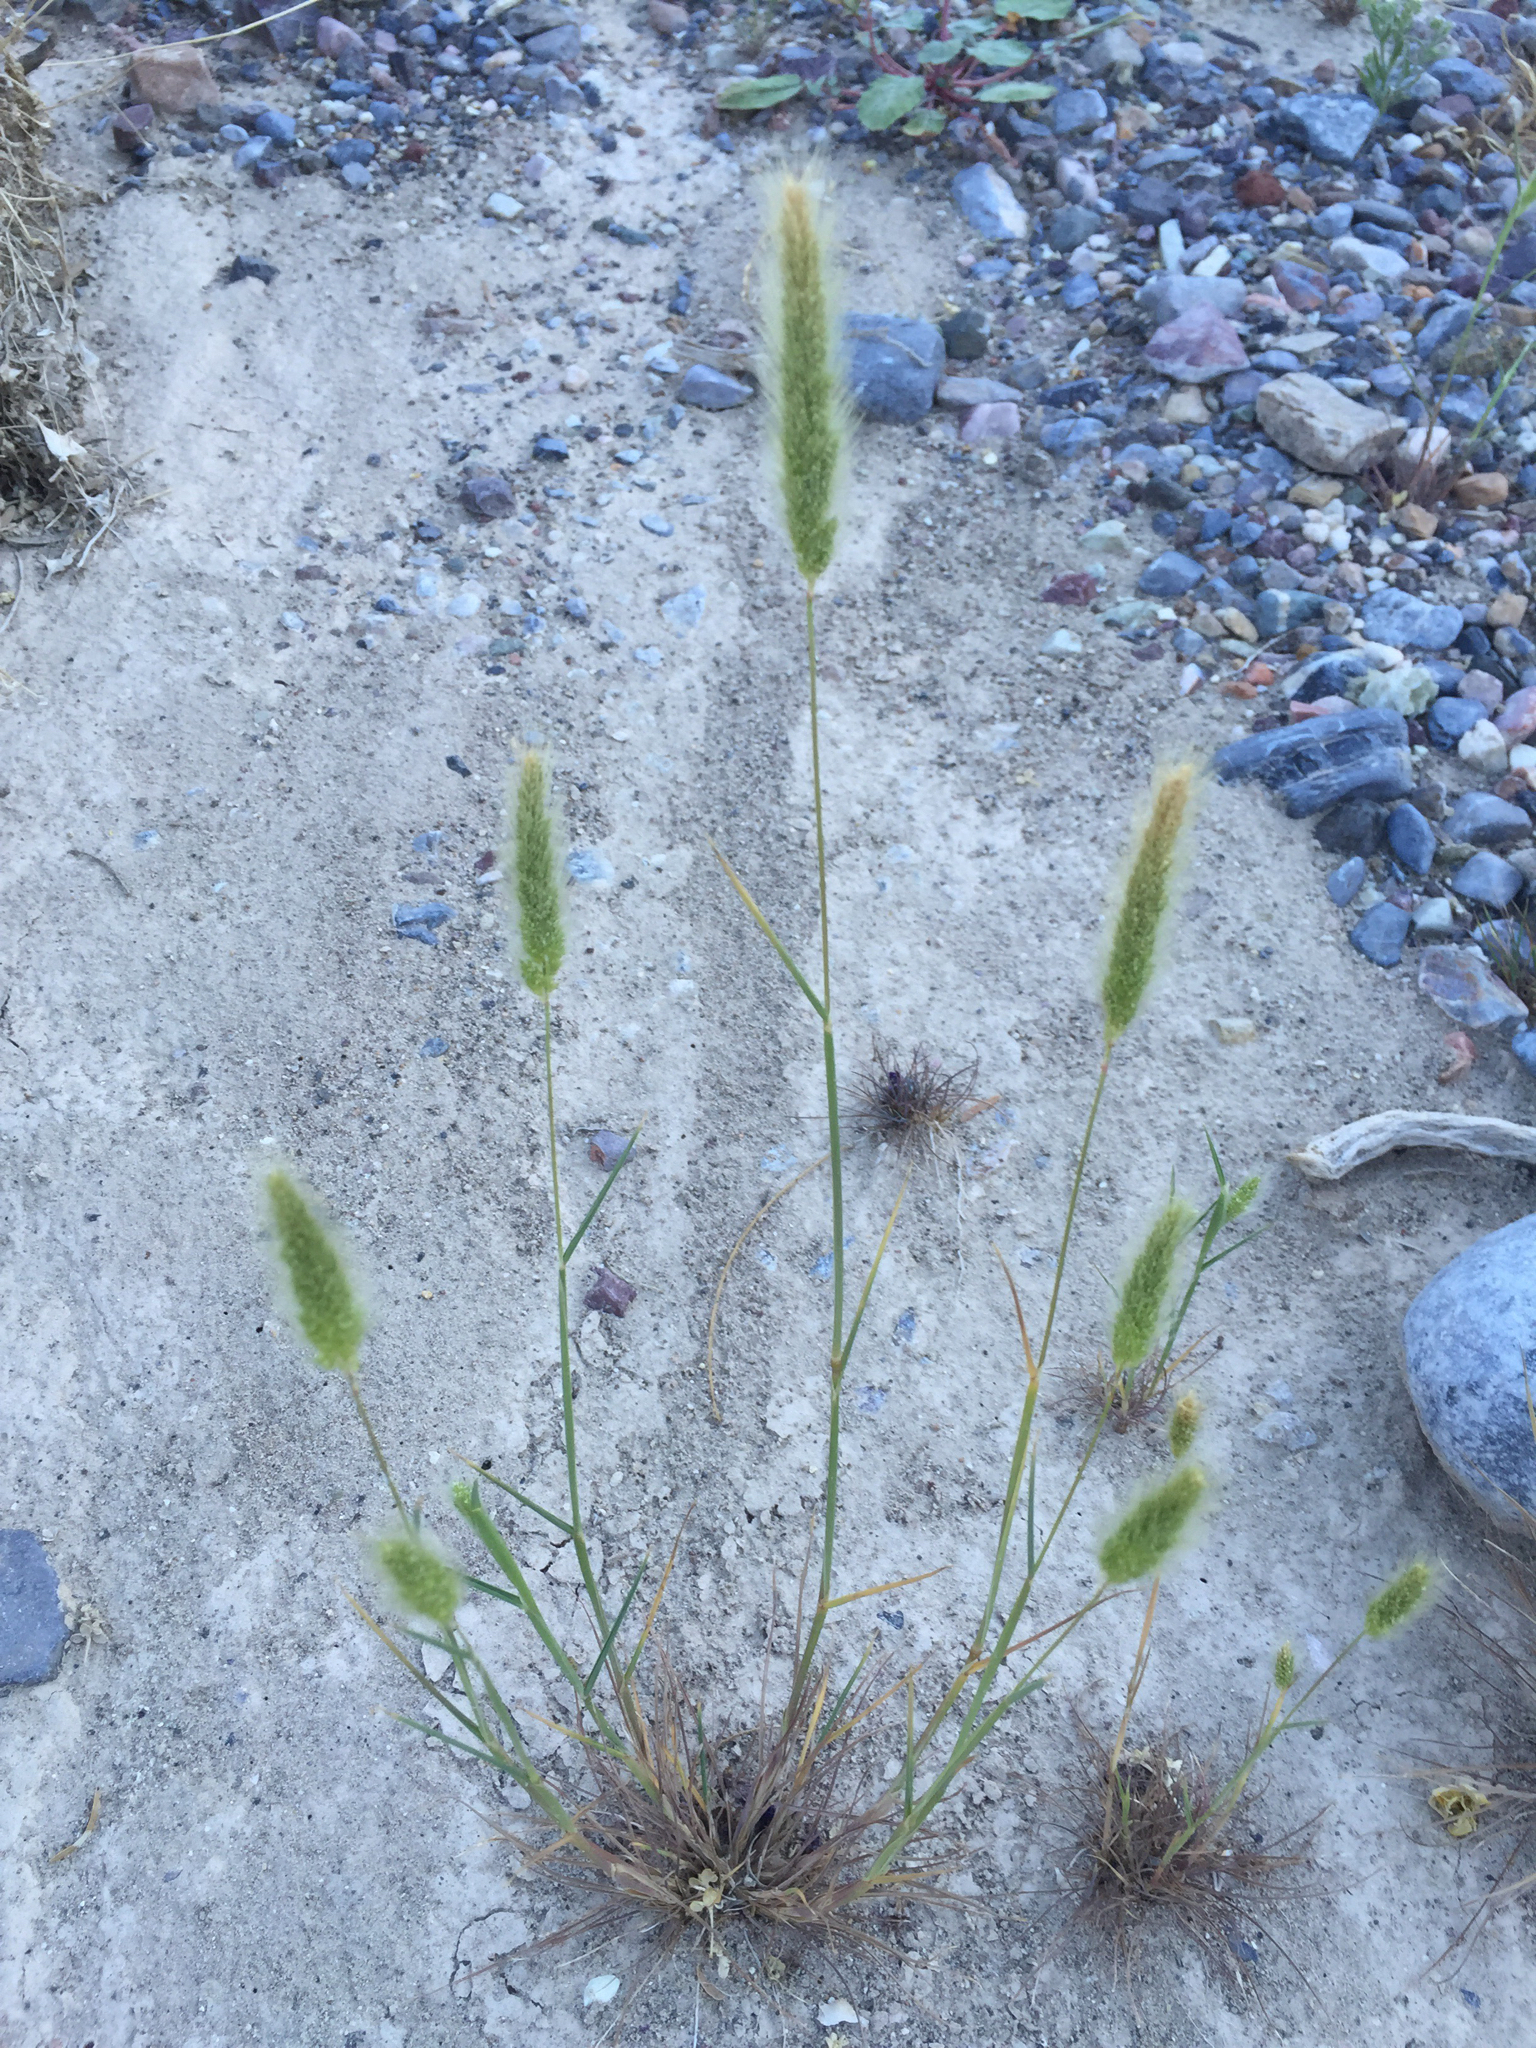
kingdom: Plantae
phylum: Tracheophyta
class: Liliopsida
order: Poales
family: Poaceae
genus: Polypogon
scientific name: Polypogon monspeliensis
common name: Annual rabbitsfoot grass
